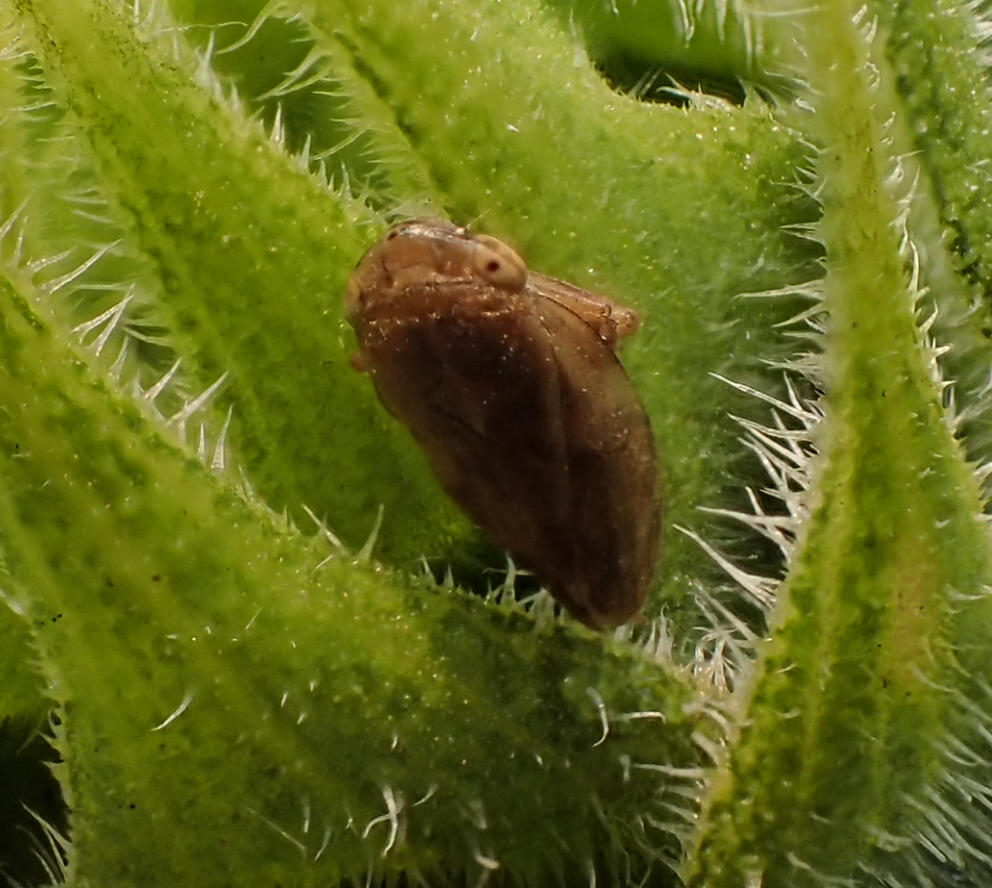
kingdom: Animalia
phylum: Arthropoda
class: Insecta
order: Hemiptera
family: Aphrophoridae
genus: Philaenus
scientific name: Philaenus spumarius
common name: Meadow spittlebug
